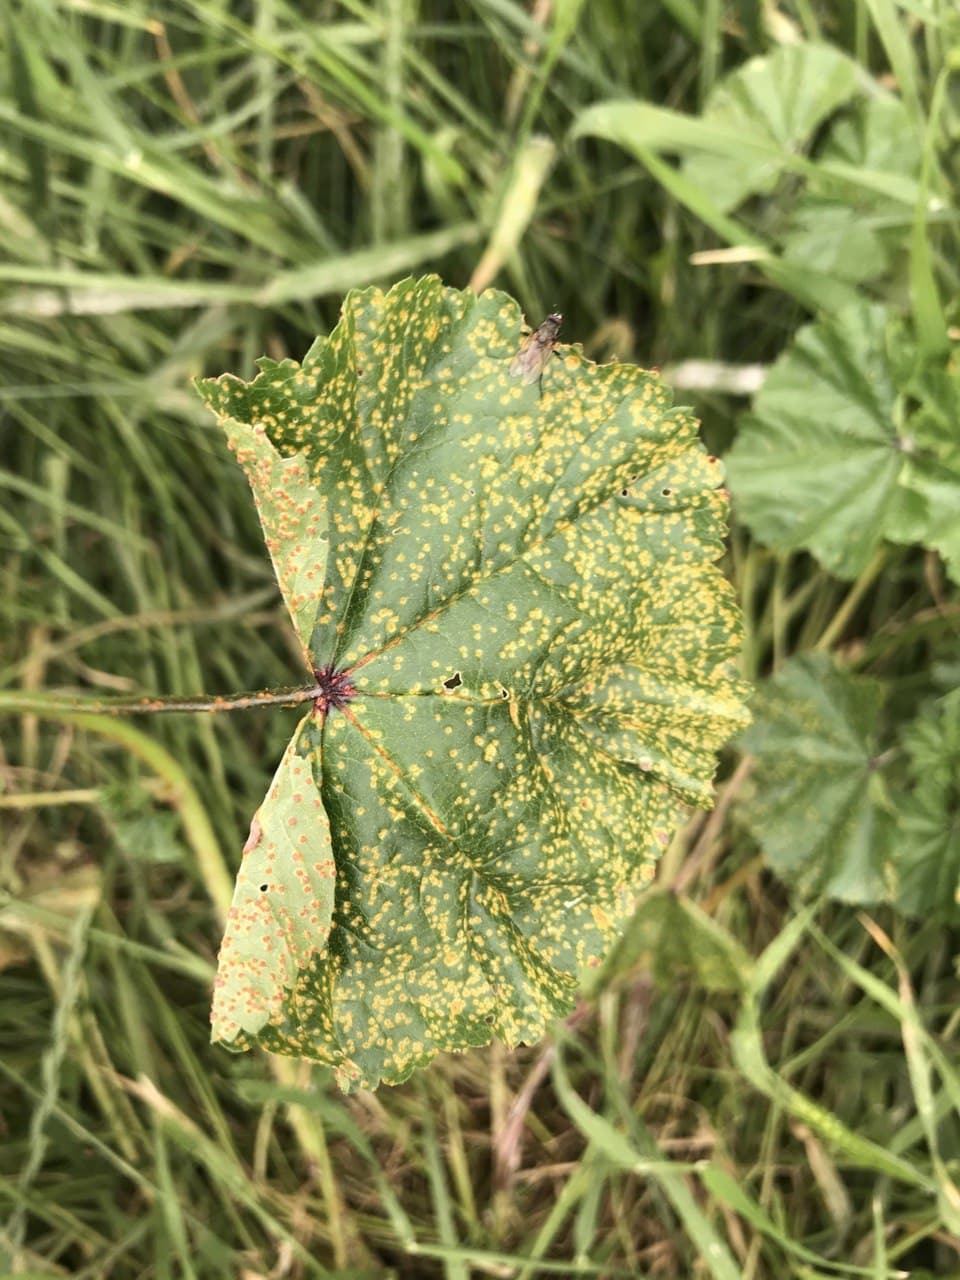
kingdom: Fungi
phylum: Basidiomycota
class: Pucciniomycetes
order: Pucciniales
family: Pucciniaceae
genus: Puccinia
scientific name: Puccinia malvacearum
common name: Hollyhock rust
